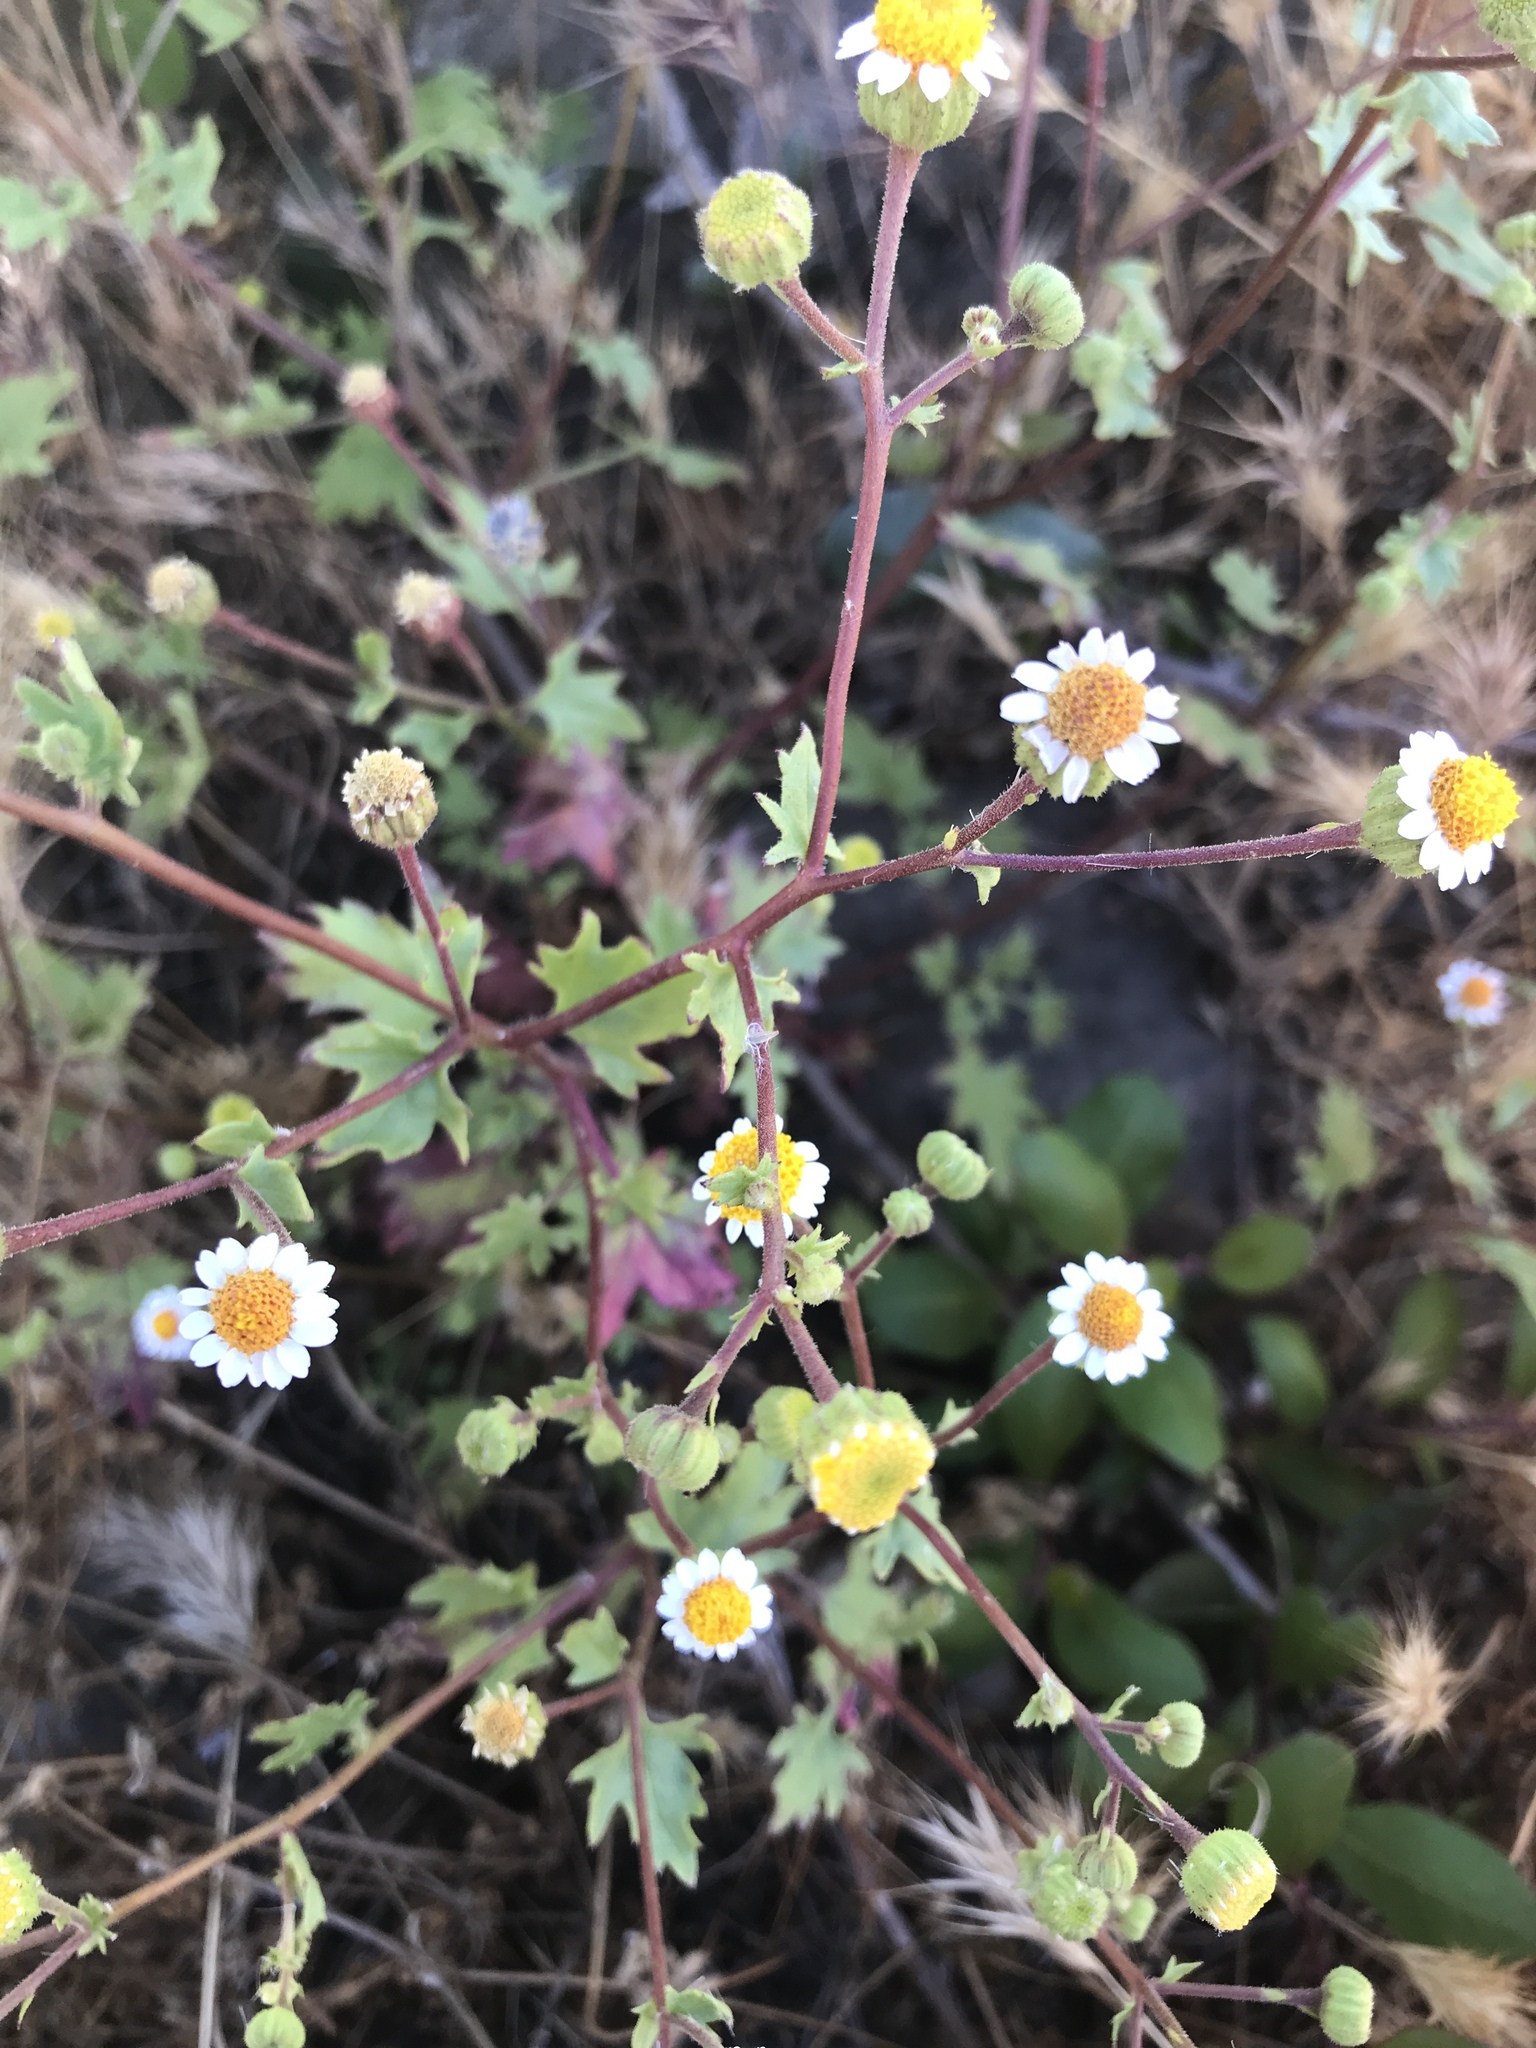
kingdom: Plantae
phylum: Tracheophyta
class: Magnoliopsida
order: Asterales
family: Asteraceae
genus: Laphamia
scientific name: Laphamia emoryi
